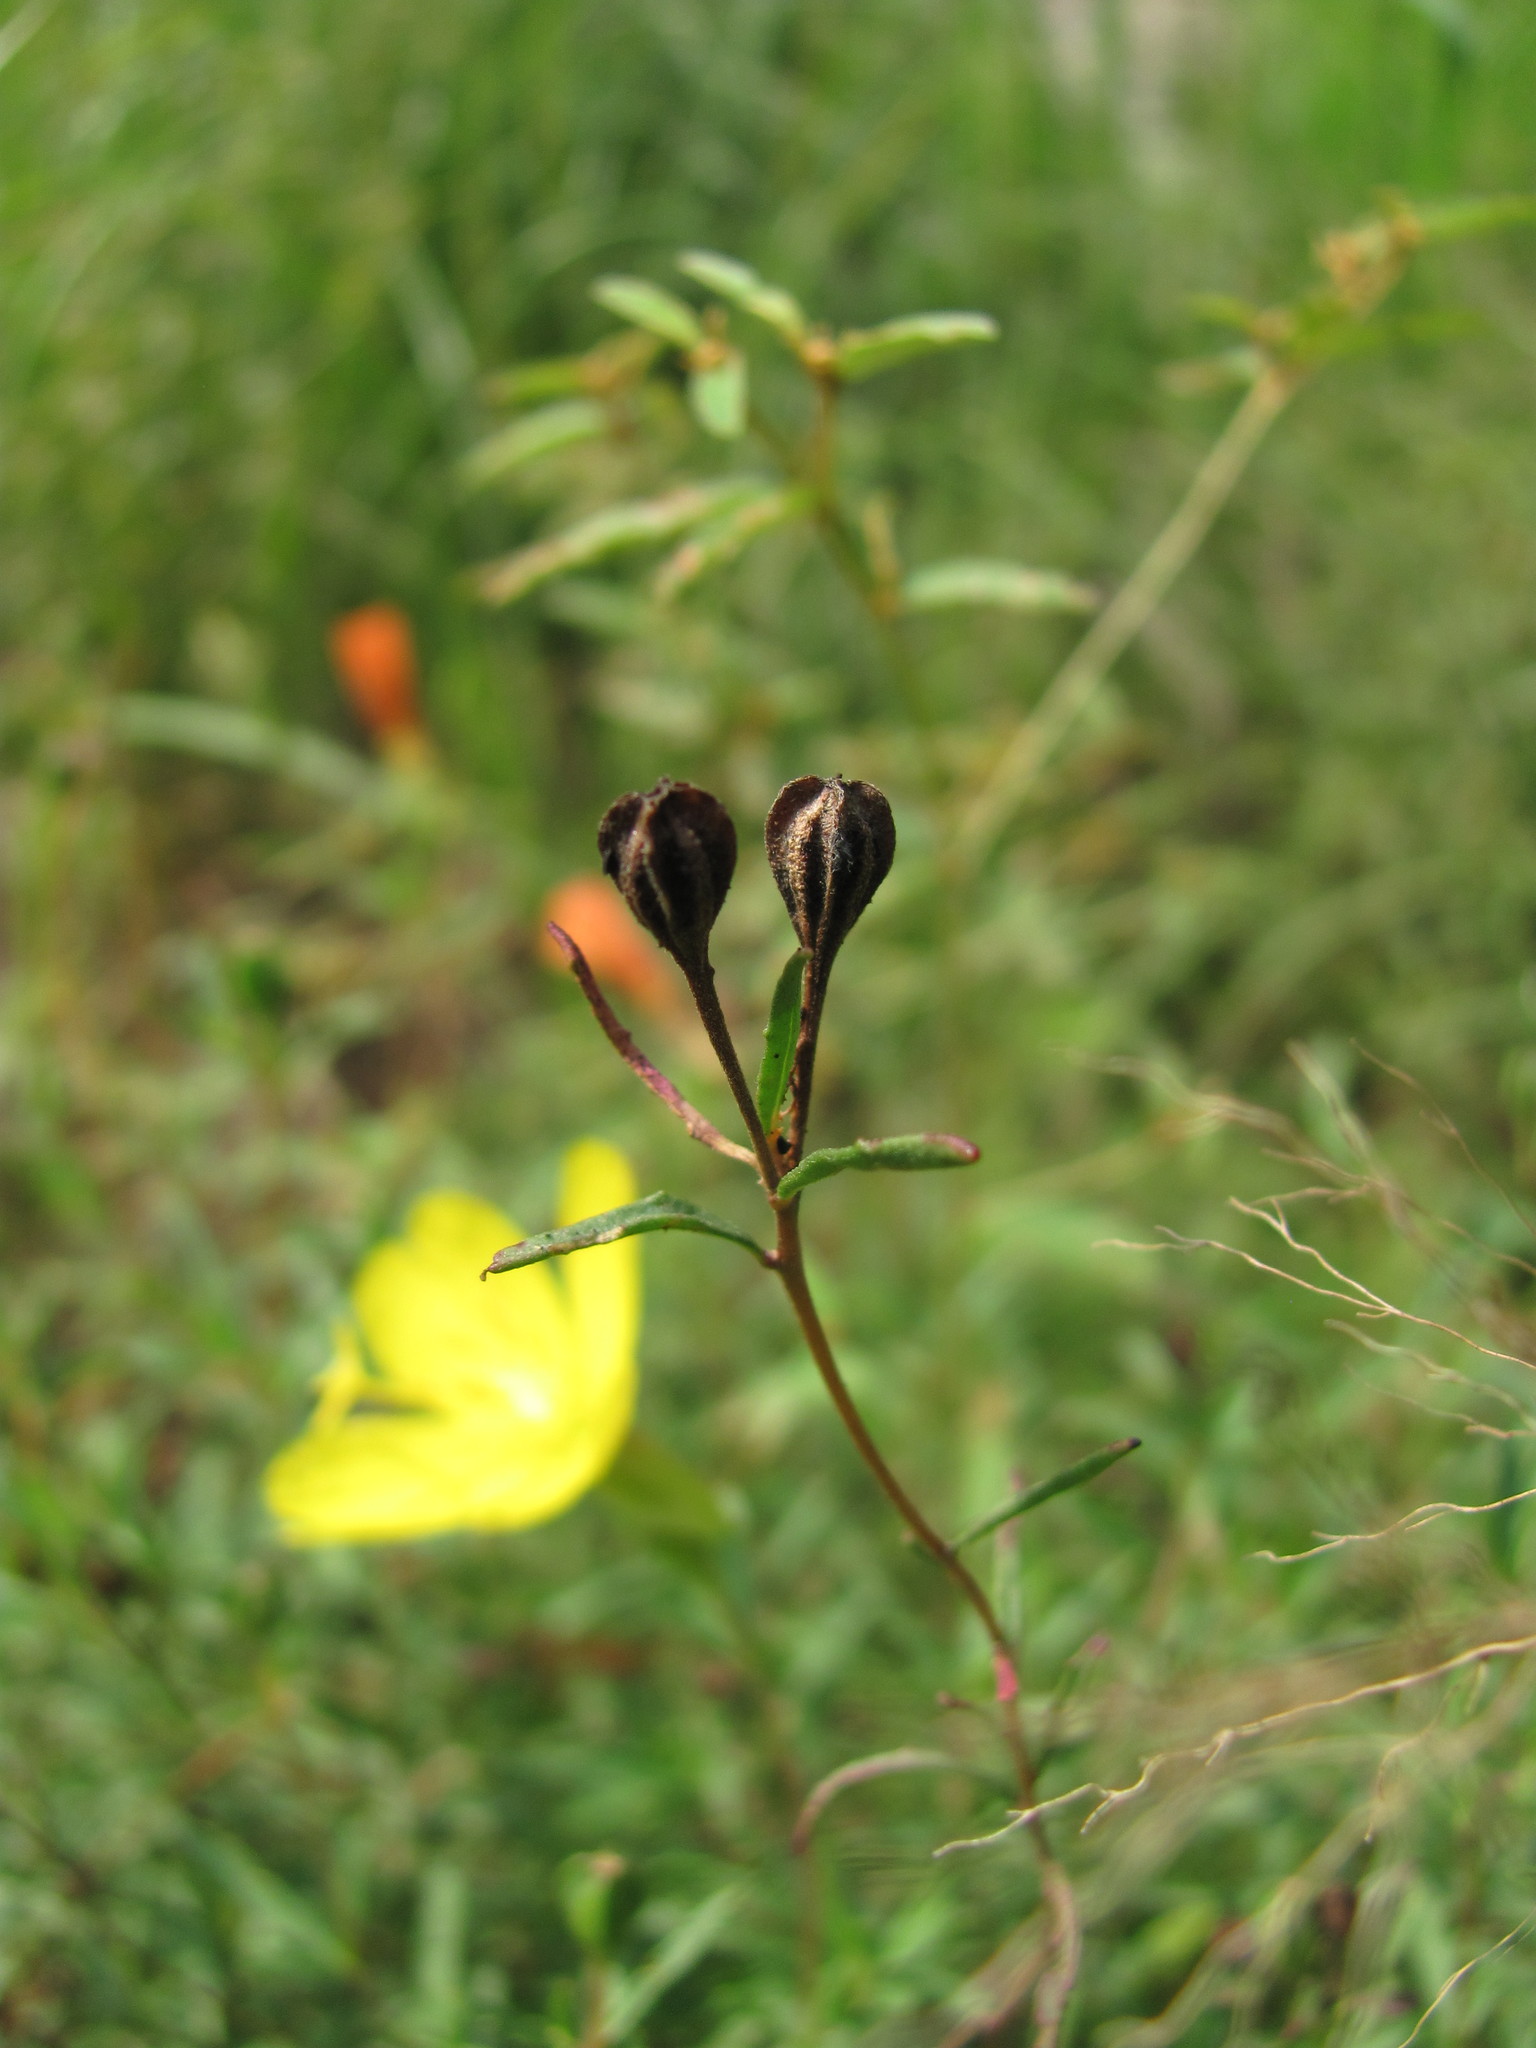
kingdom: Plantae
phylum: Tracheophyta
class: Magnoliopsida
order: Myrtales
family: Onagraceae
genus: Oenothera
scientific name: Oenothera fruticosa
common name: Southern sundrops
